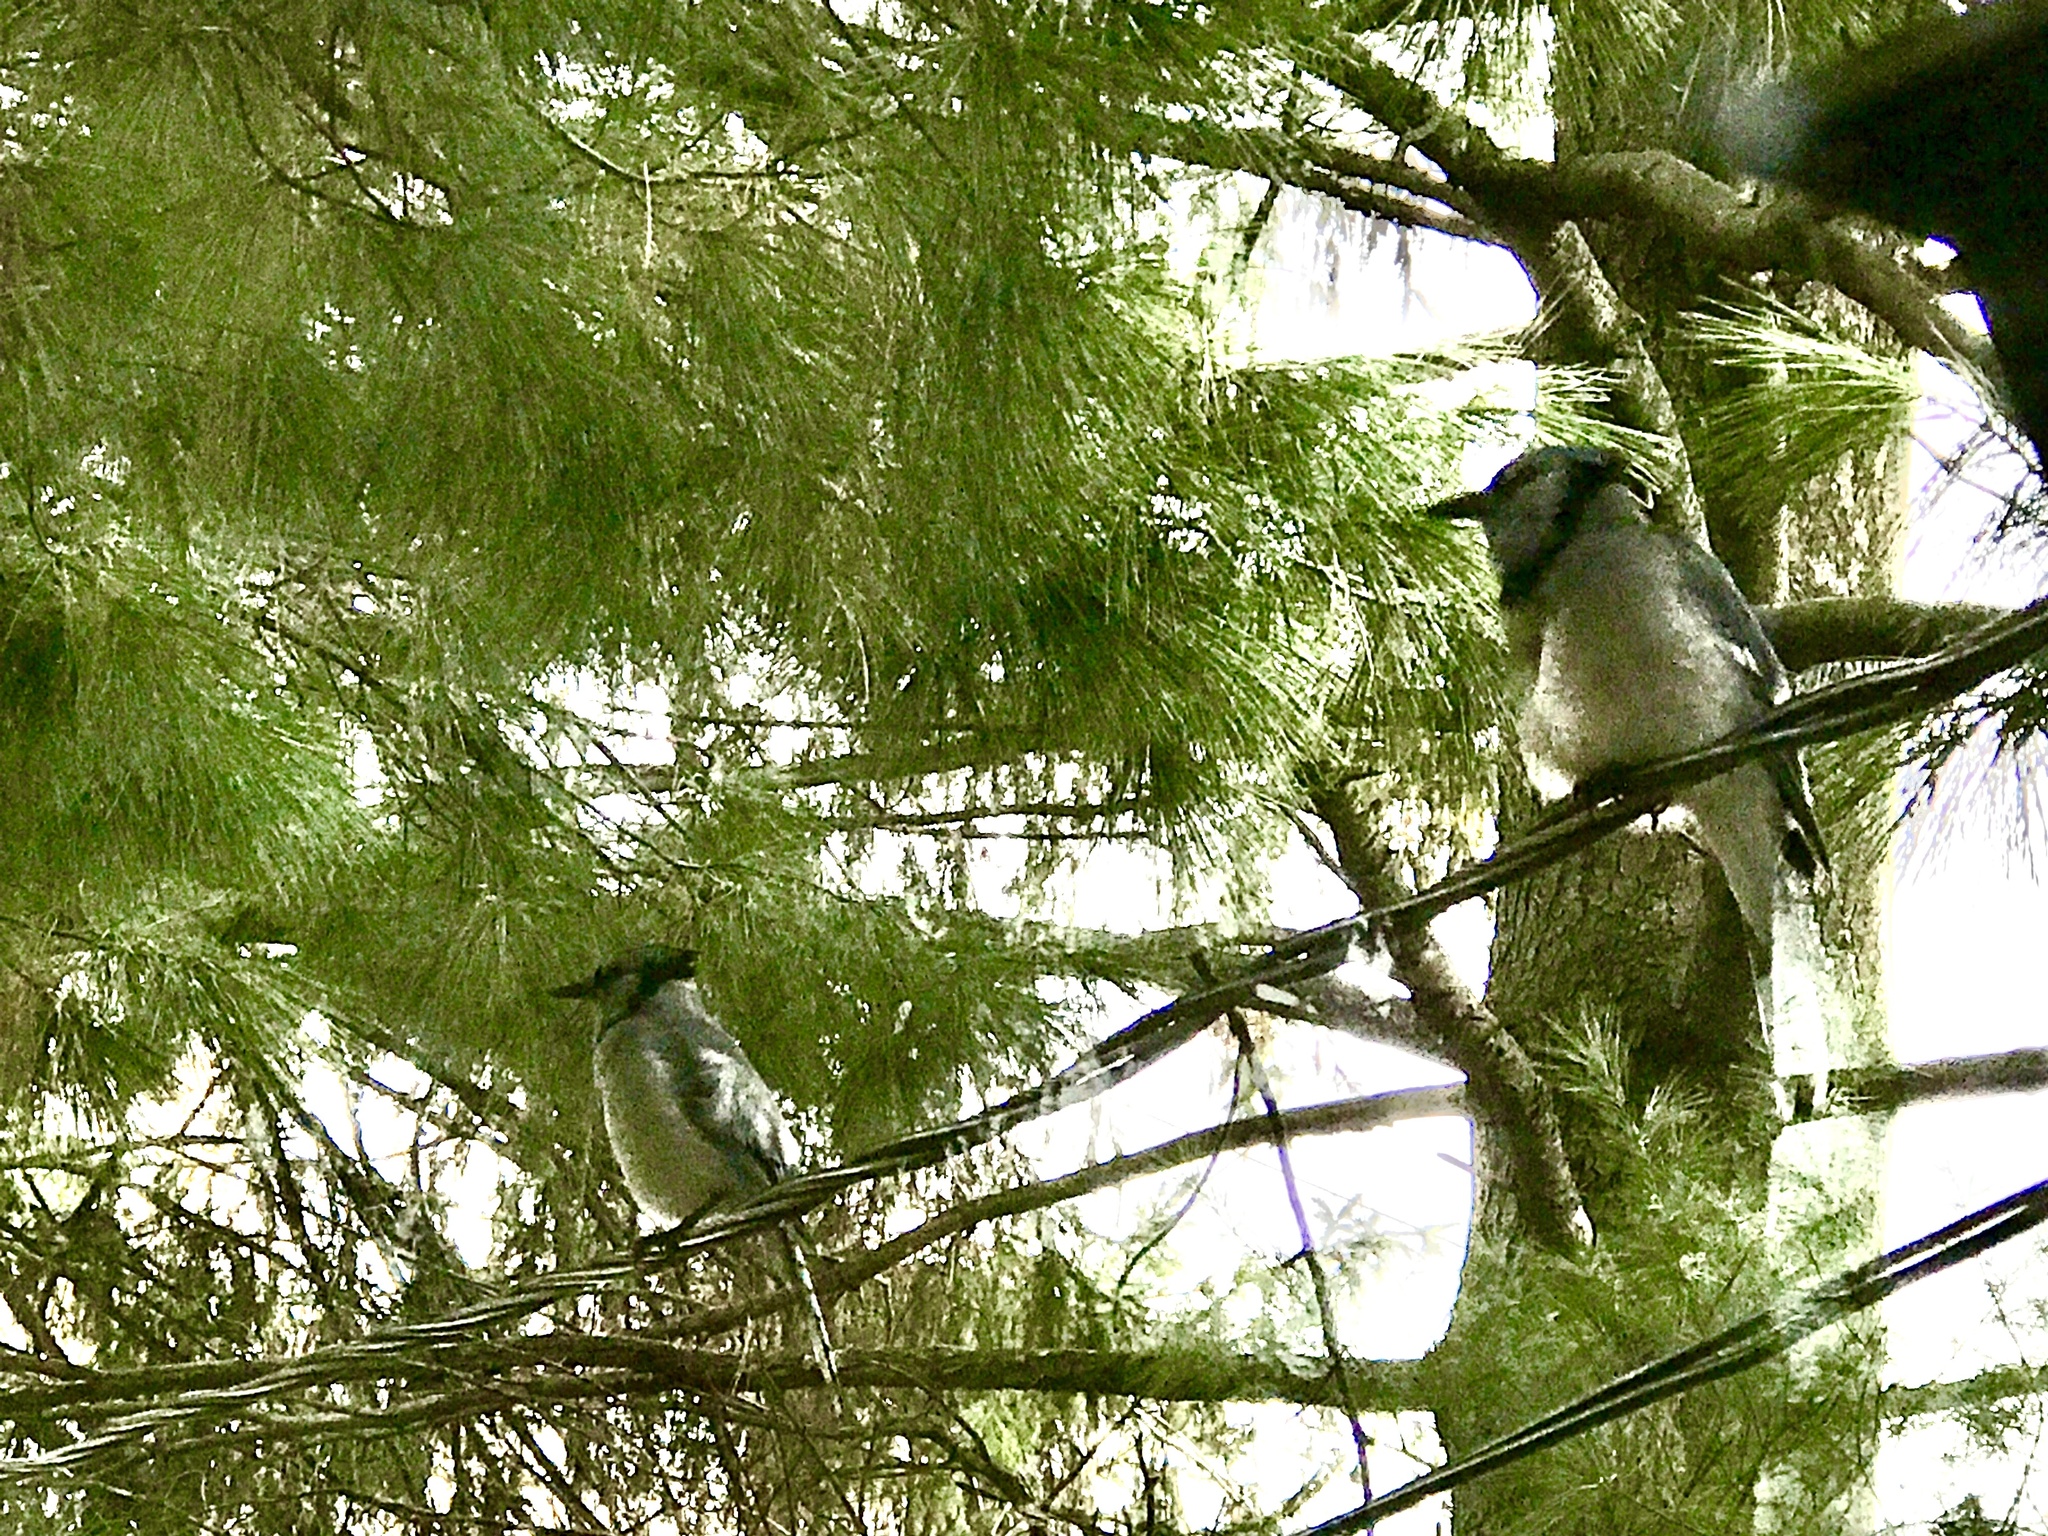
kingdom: Animalia
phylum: Chordata
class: Aves
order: Passeriformes
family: Corvidae
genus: Cyanocitta
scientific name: Cyanocitta cristata
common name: Blue jay
